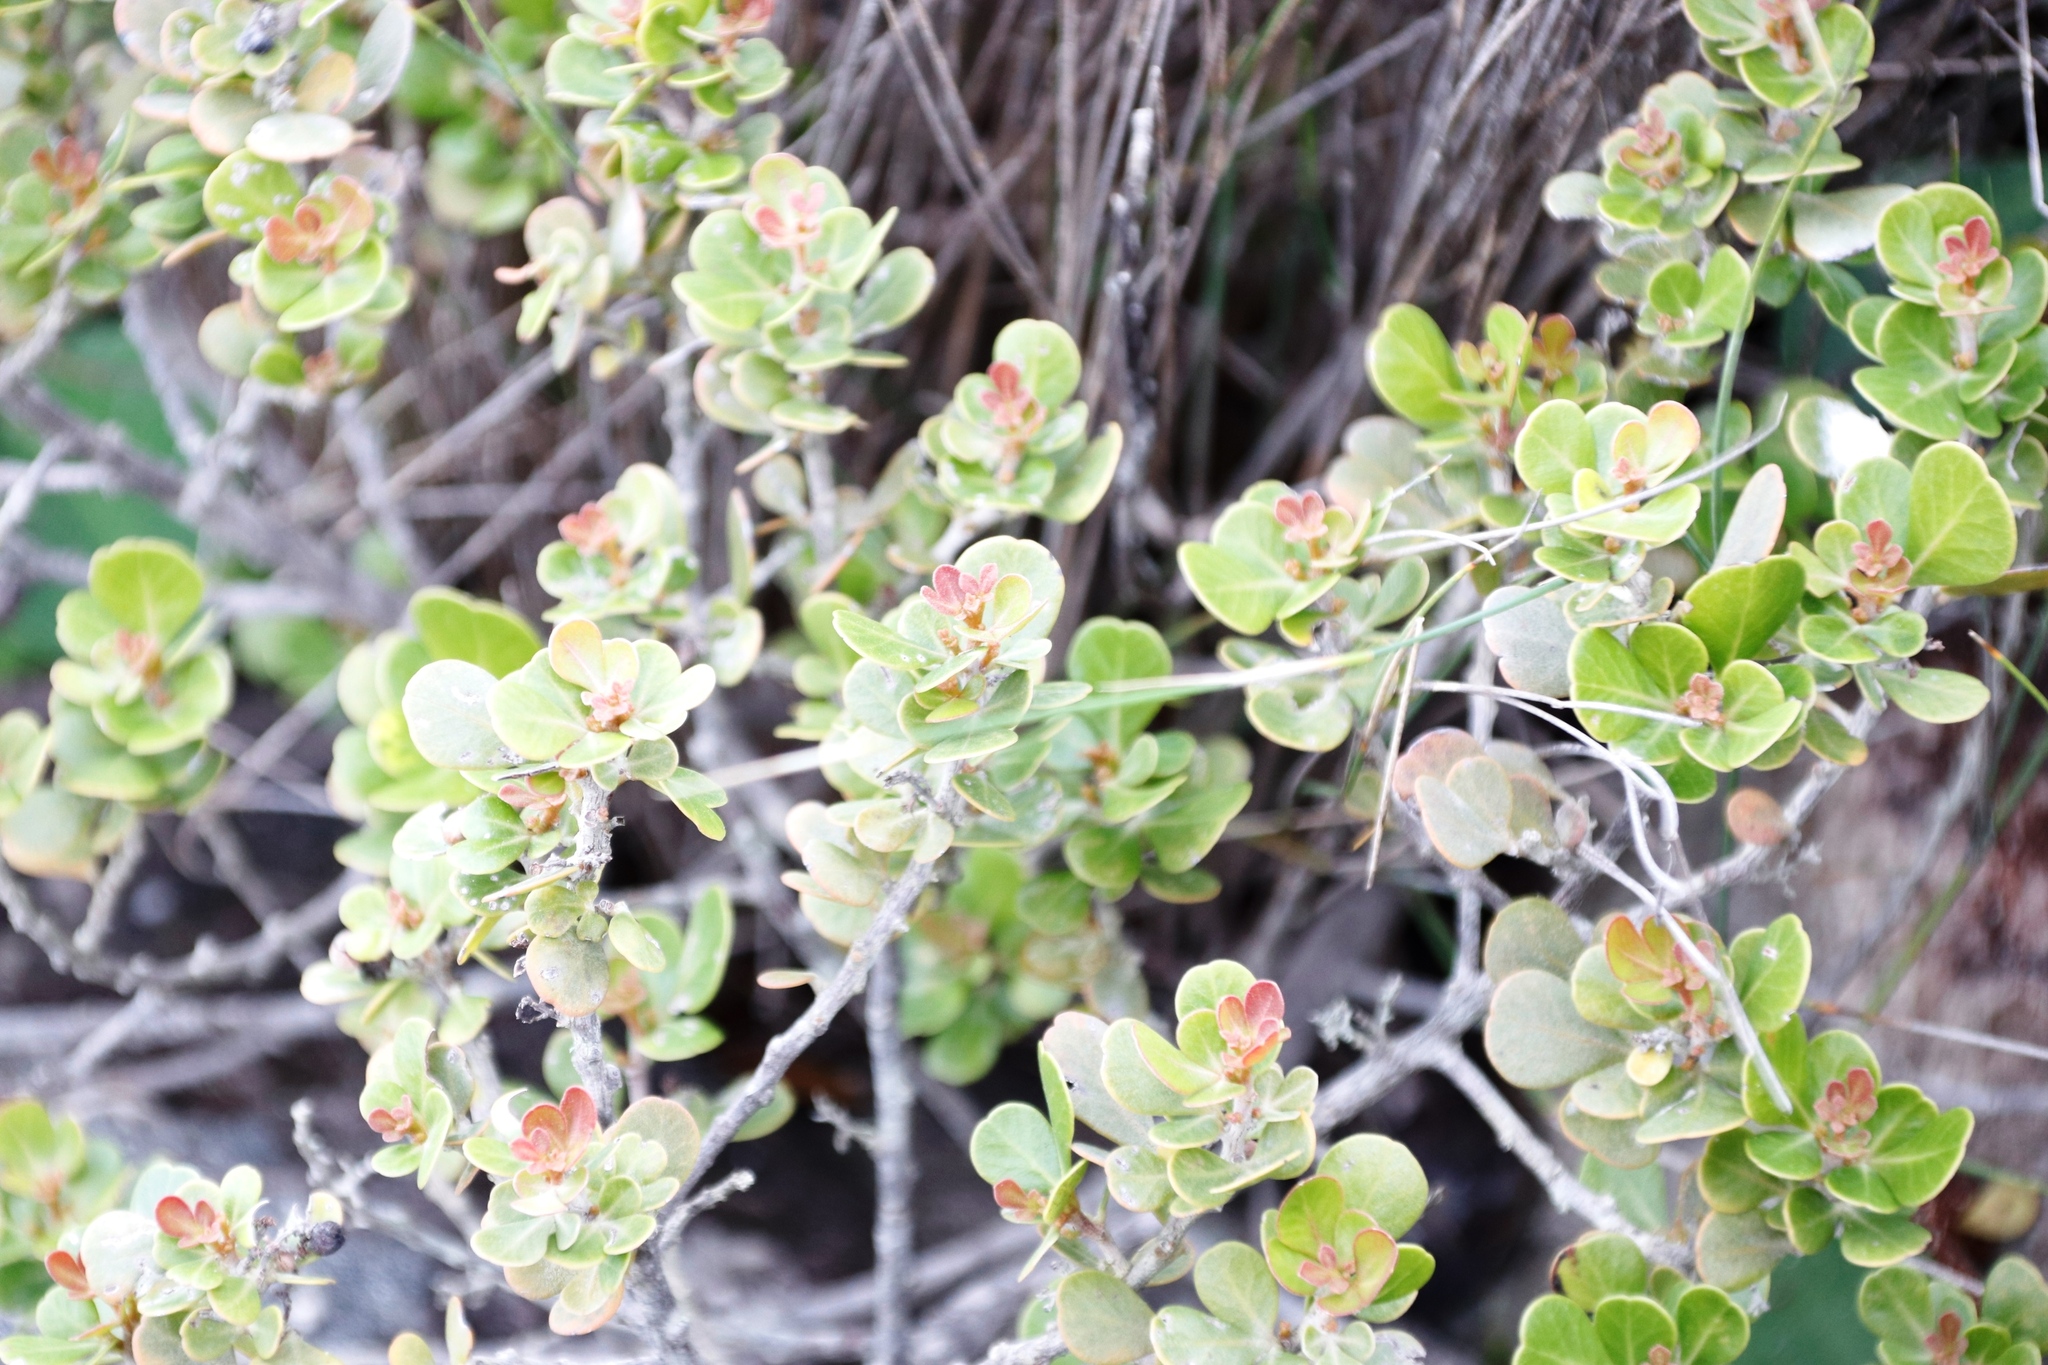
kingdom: Plantae
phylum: Tracheophyta
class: Magnoliopsida
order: Sapindales
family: Anacardiaceae
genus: Searsia
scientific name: Searsia lucida
